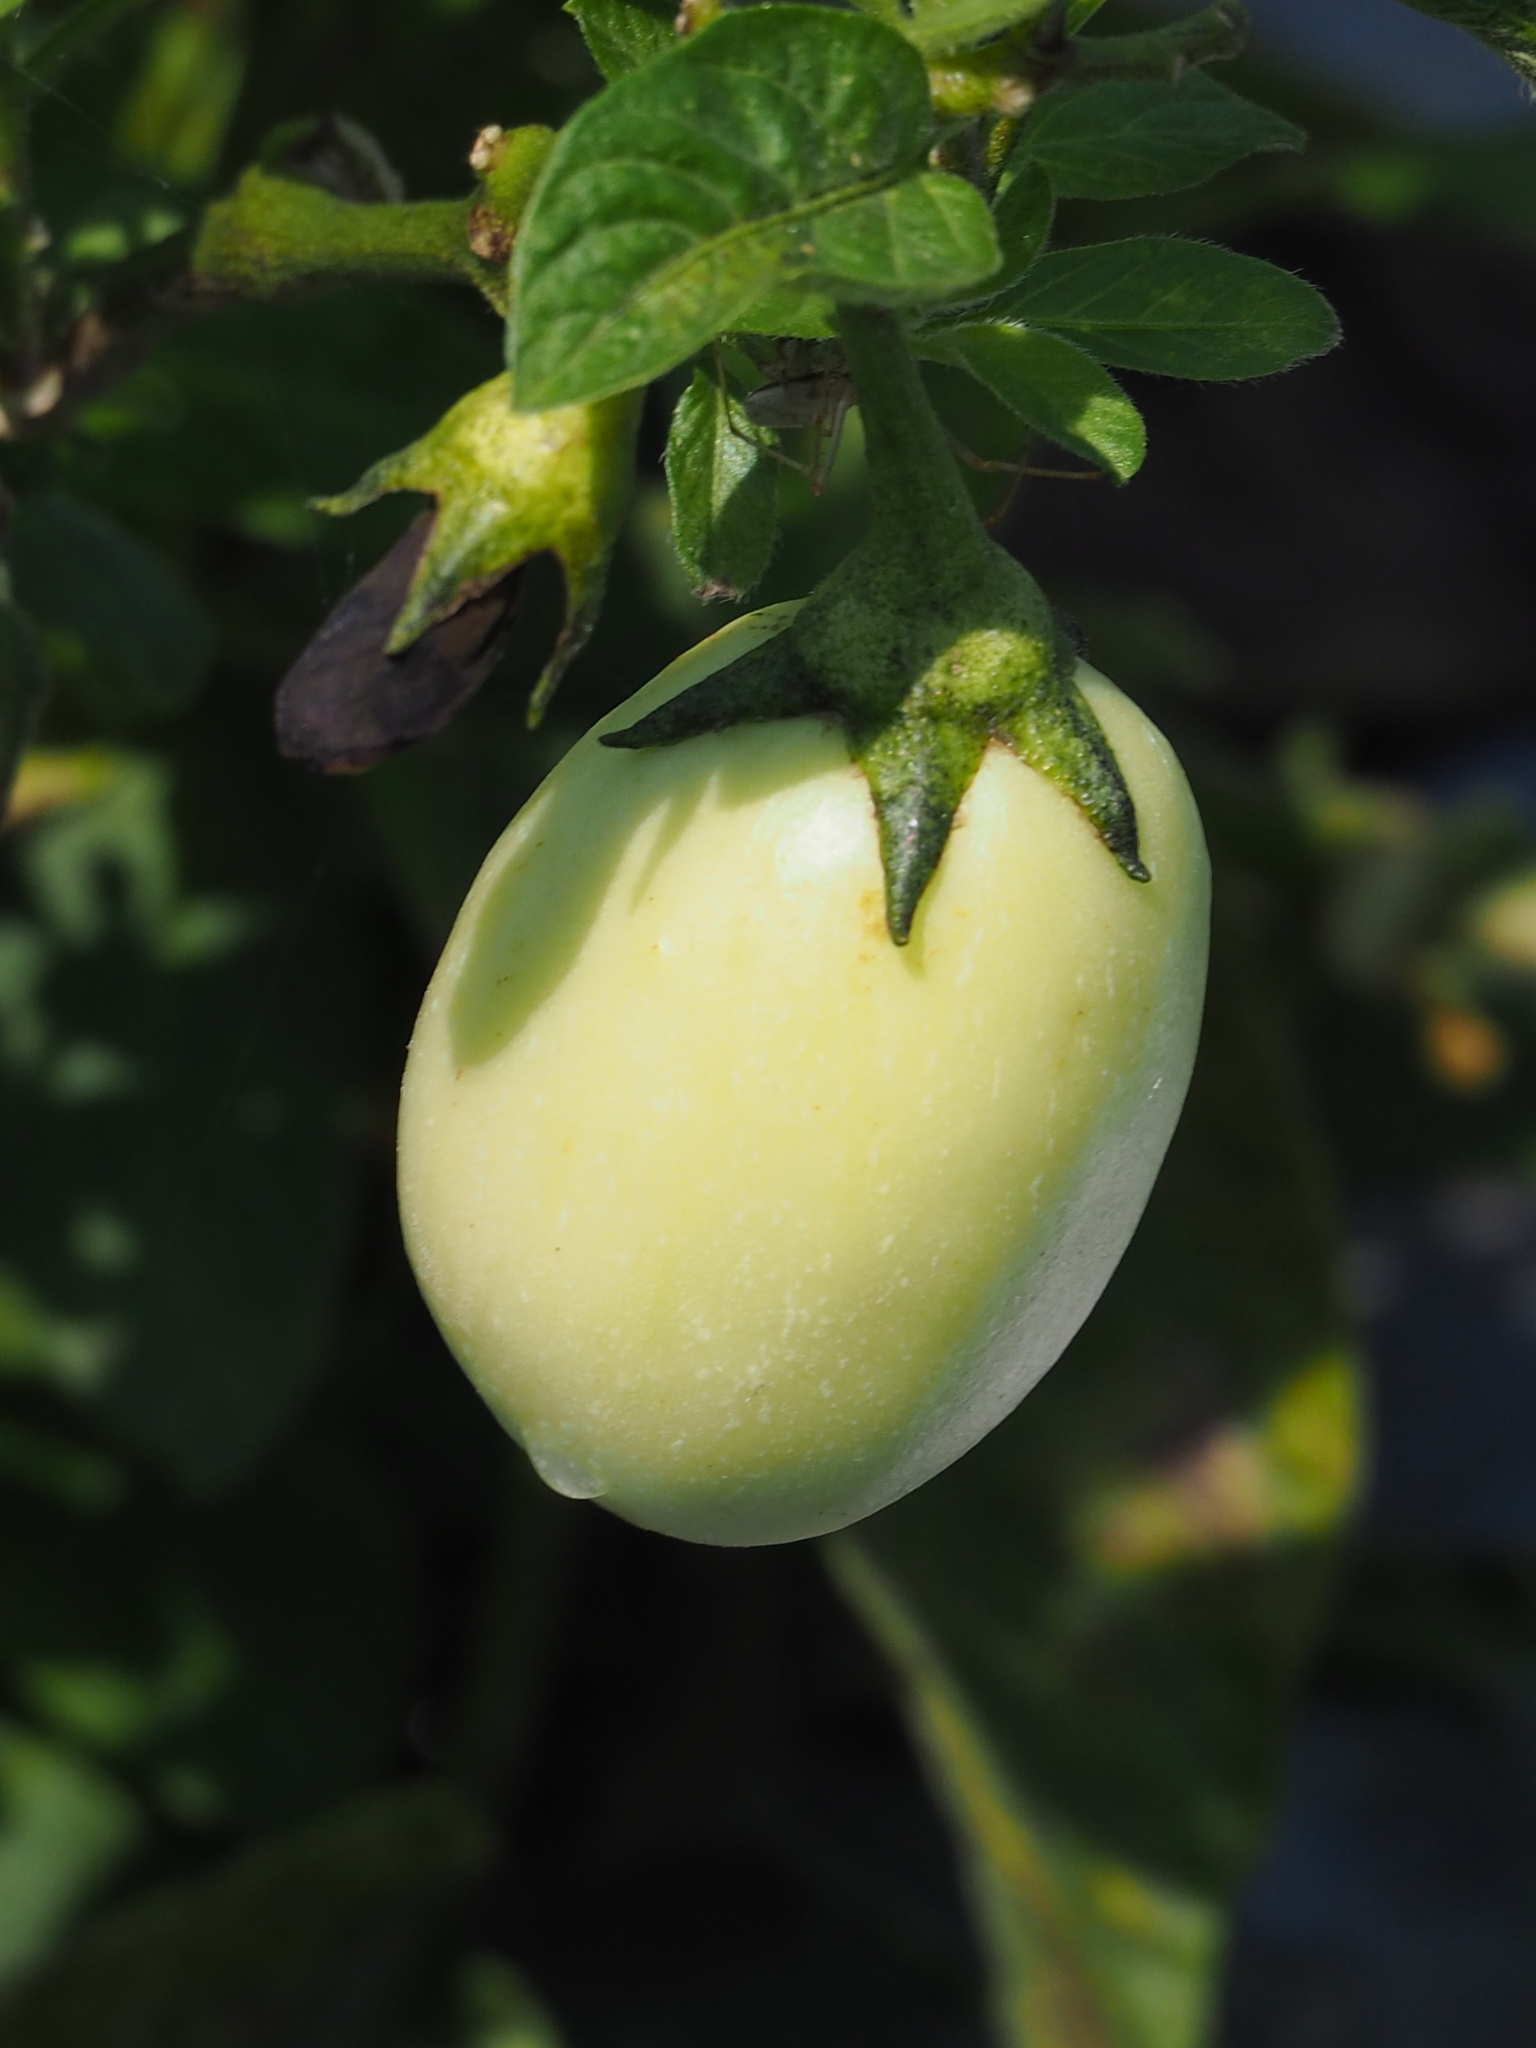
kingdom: Plantae
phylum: Tracheophyta
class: Magnoliopsida
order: Solanales
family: Solanaceae
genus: Solanum
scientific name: Solanum muricatum
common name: Peruvian pepino
